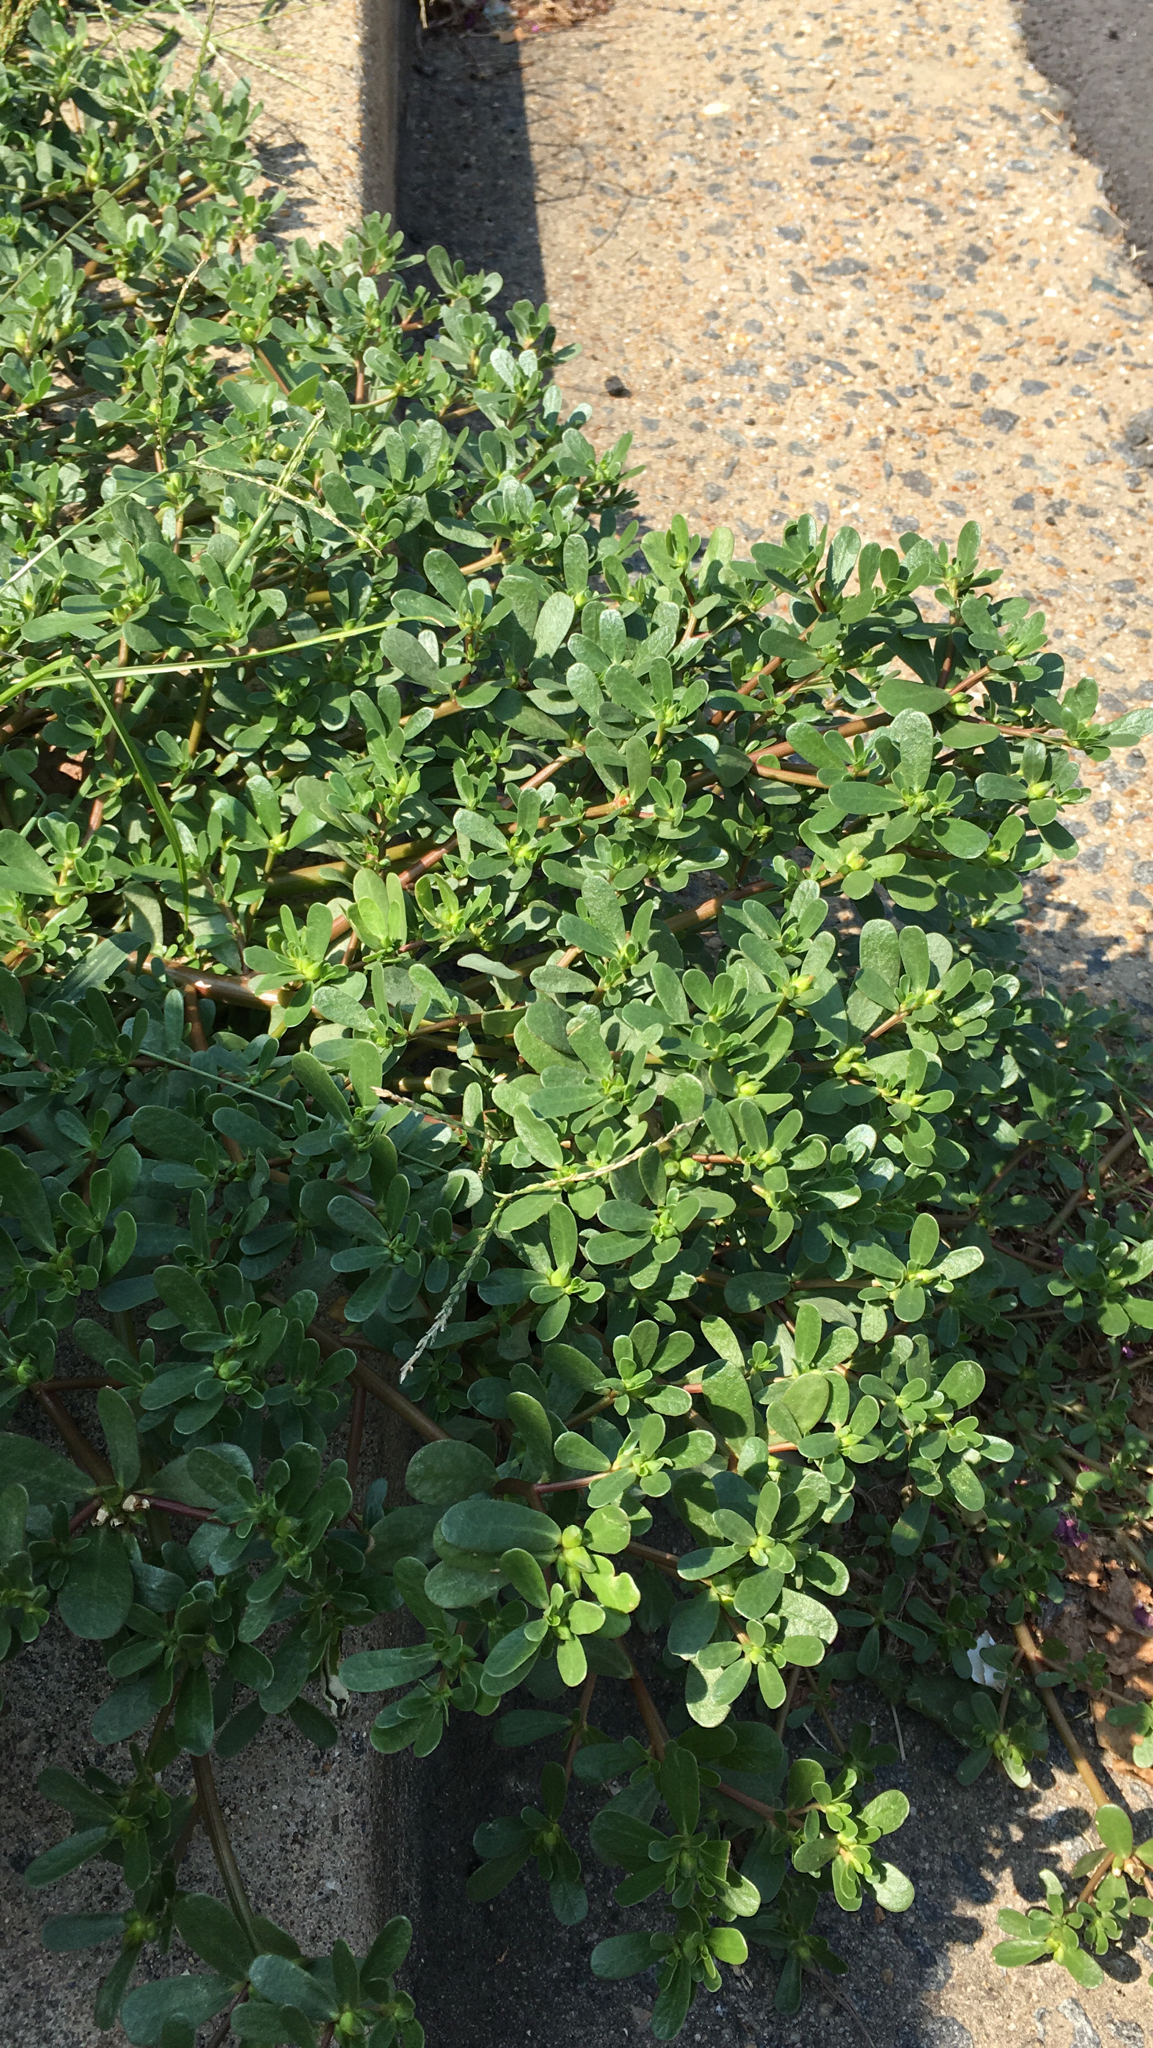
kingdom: Plantae
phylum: Tracheophyta
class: Magnoliopsida
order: Caryophyllales
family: Portulacaceae
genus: Portulaca
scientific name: Portulaca oleracea
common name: Common purslane
